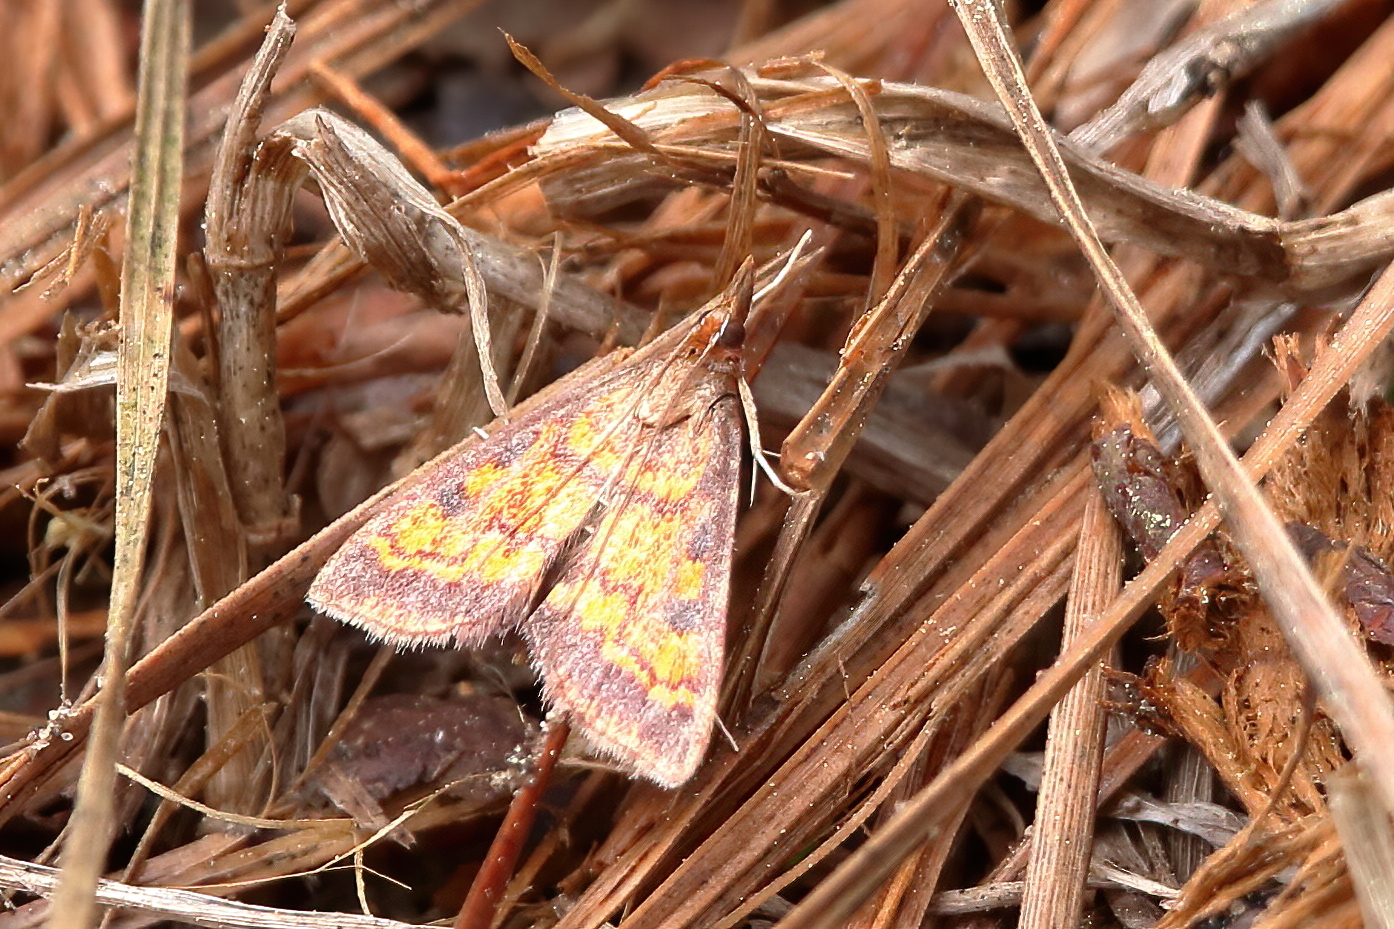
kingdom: Animalia
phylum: Arthropoda
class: Insecta
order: Lepidoptera
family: Crambidae
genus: Pyrausta
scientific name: Pyrausta acrionalis
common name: Mint-loving pyrausta moth
